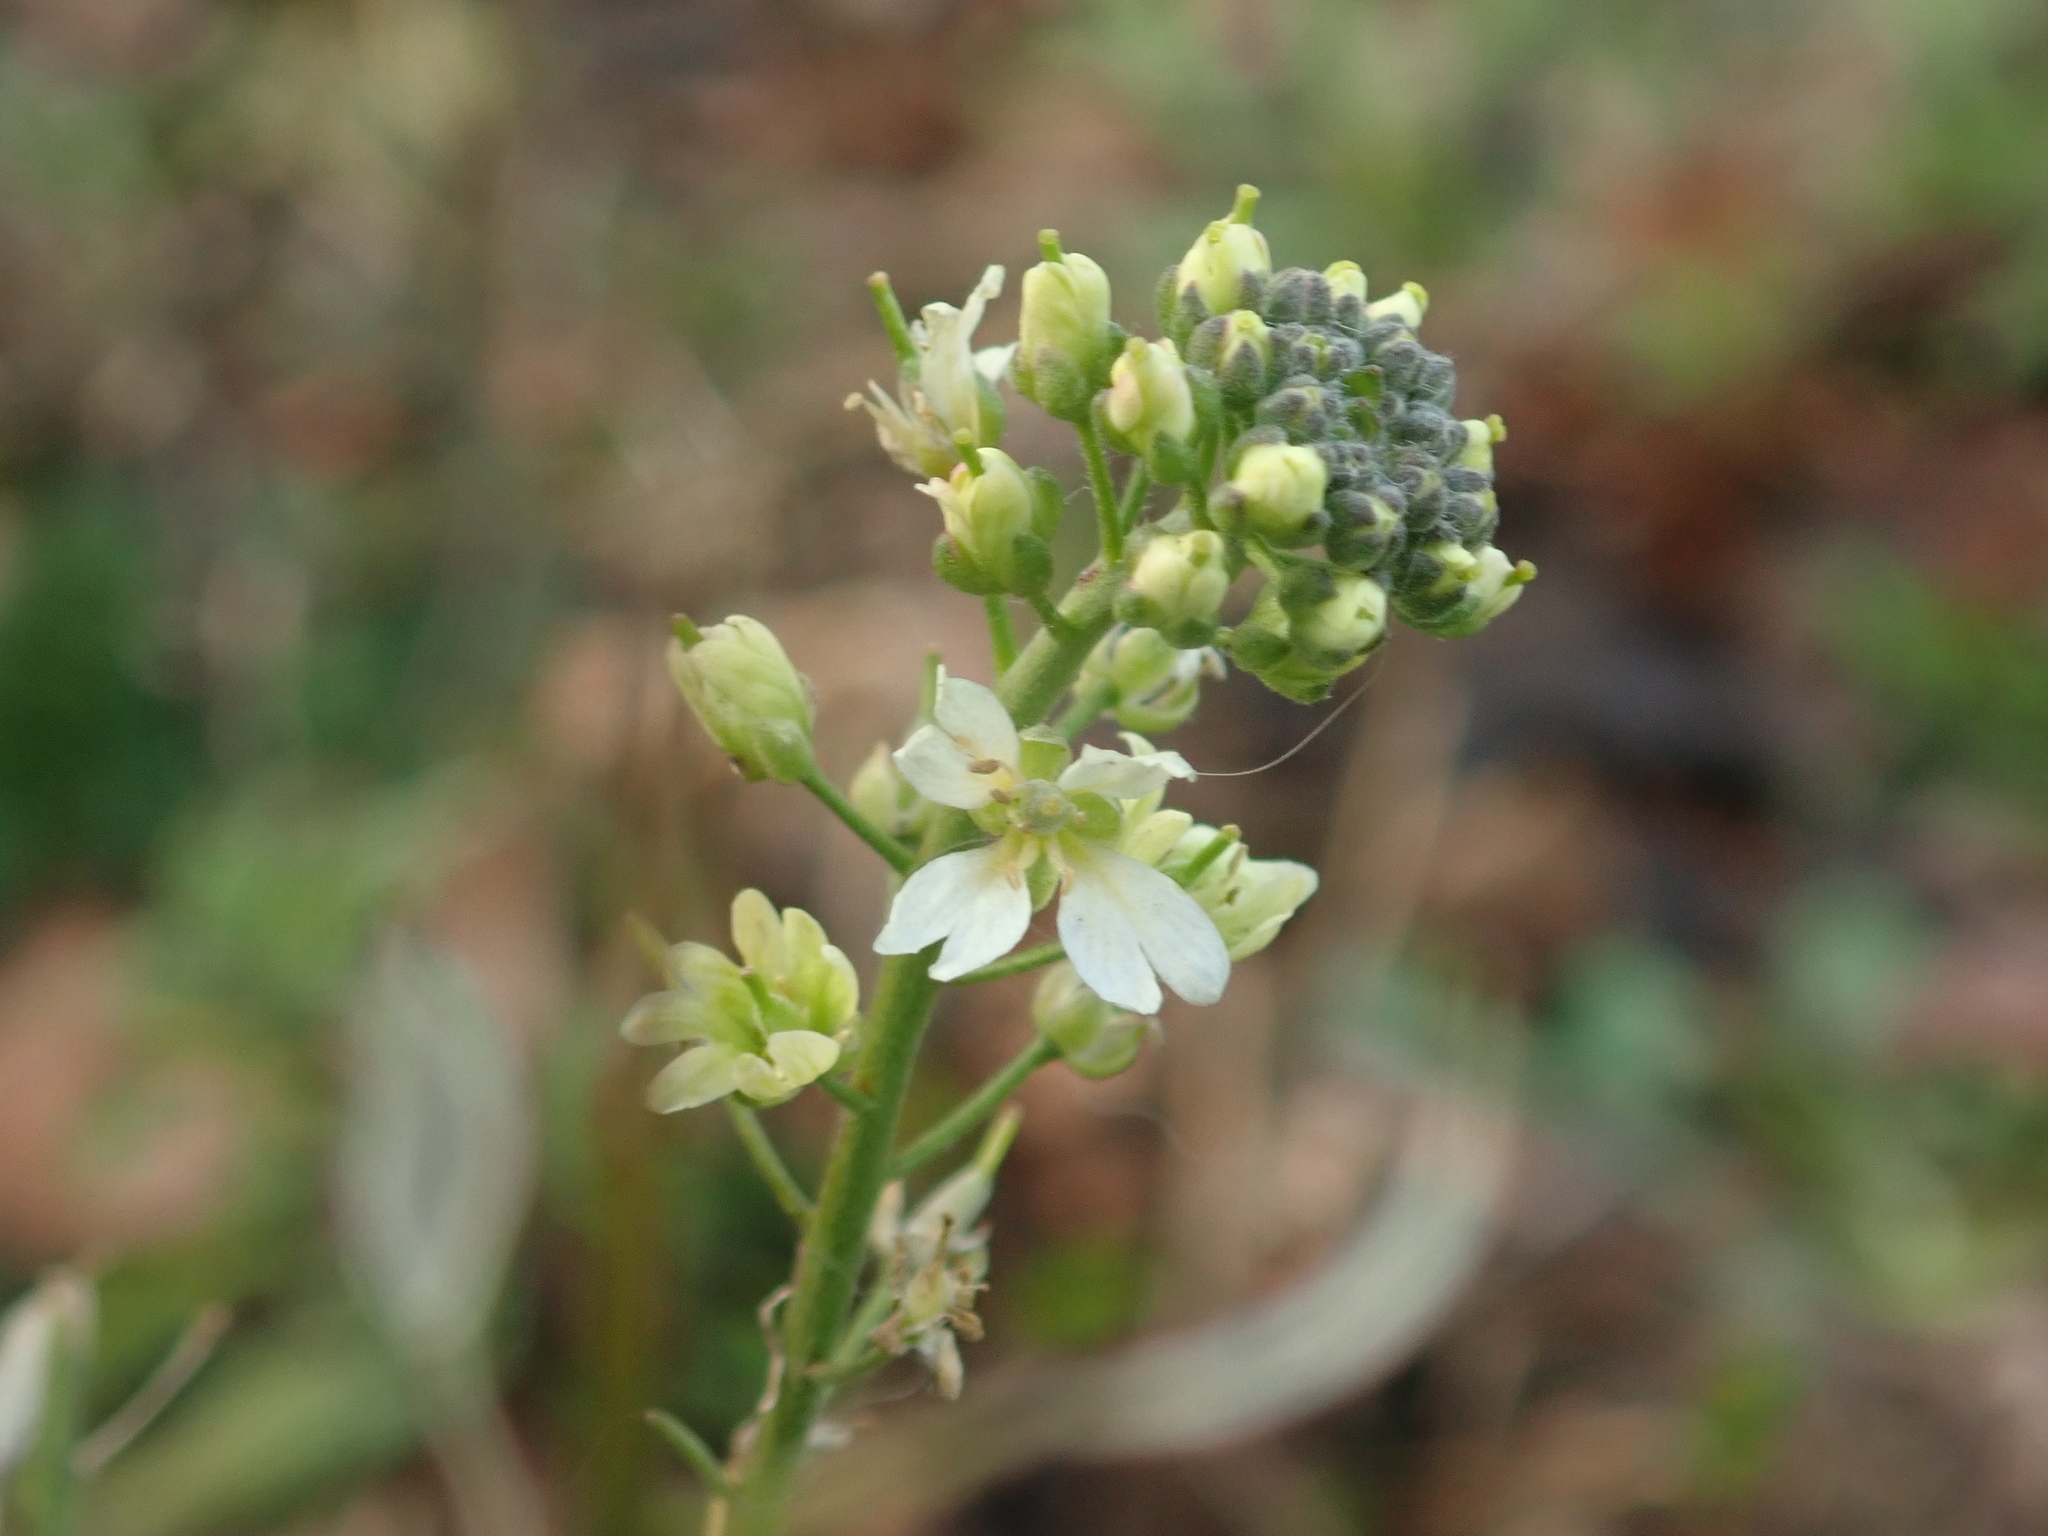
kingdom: Plantae
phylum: Tracheophyta
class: Magnoliopsida
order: Brassicales
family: Brassicaceae
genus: Berteroa
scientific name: Berteroa incana
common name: Hoary alison
